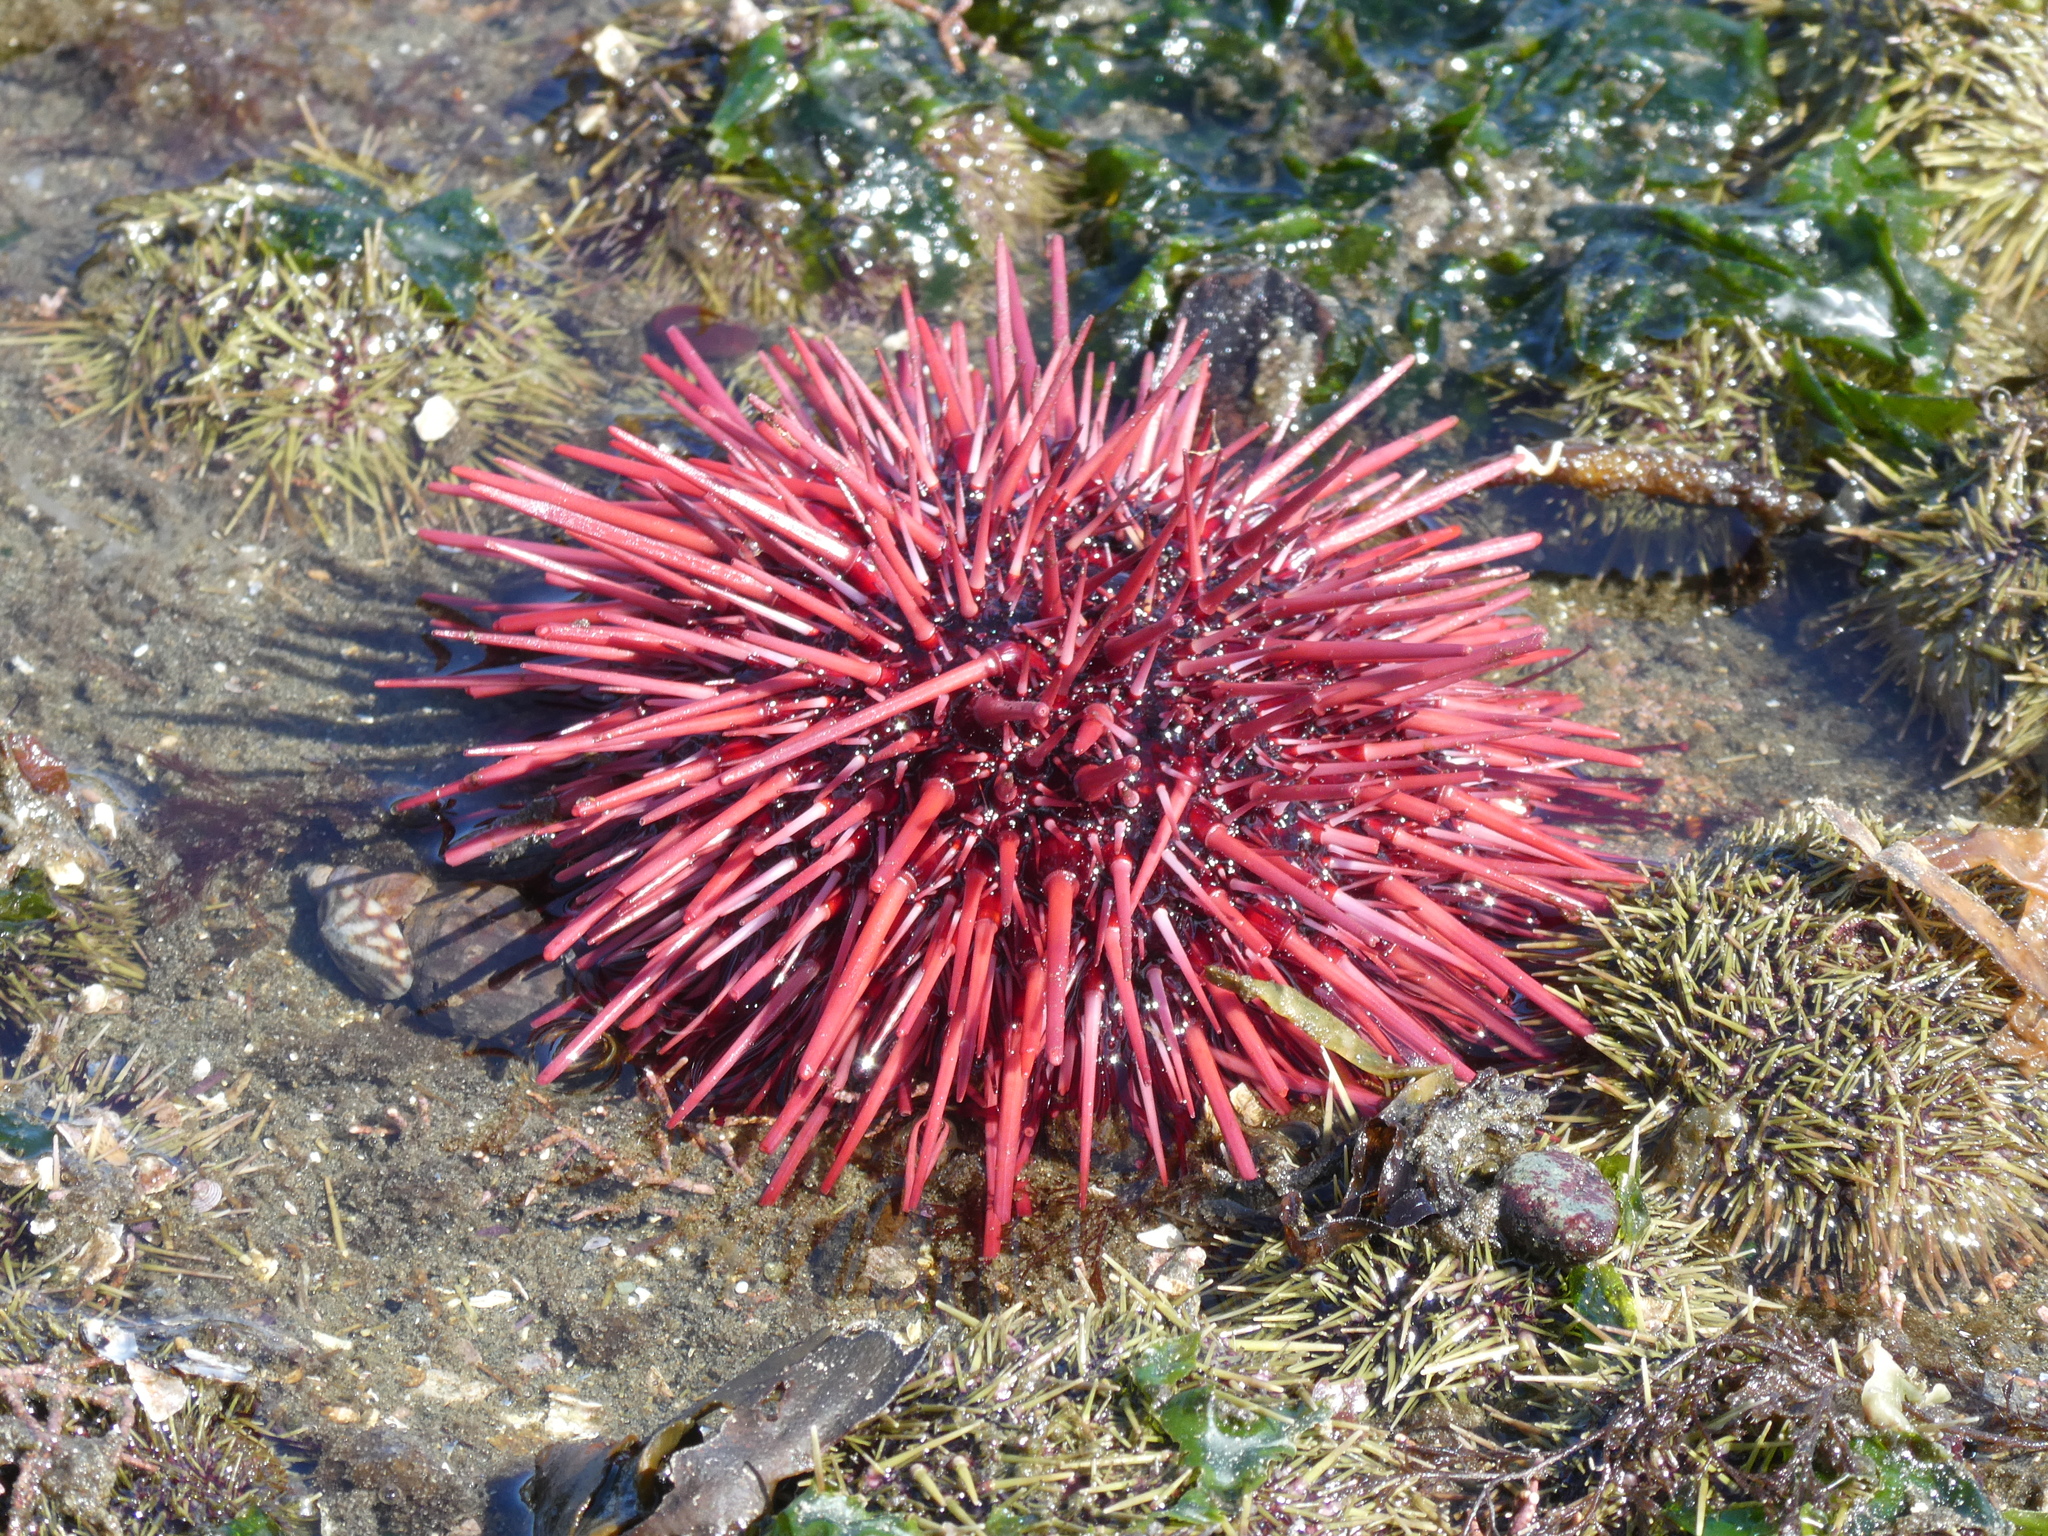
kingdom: Animalia
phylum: Echinodermata
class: Echinoidea
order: Camarodonta
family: Strongylocentrotidae
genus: Mesocentrotus
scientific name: Mesocentrotus franciscanus
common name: Red sea urchin
